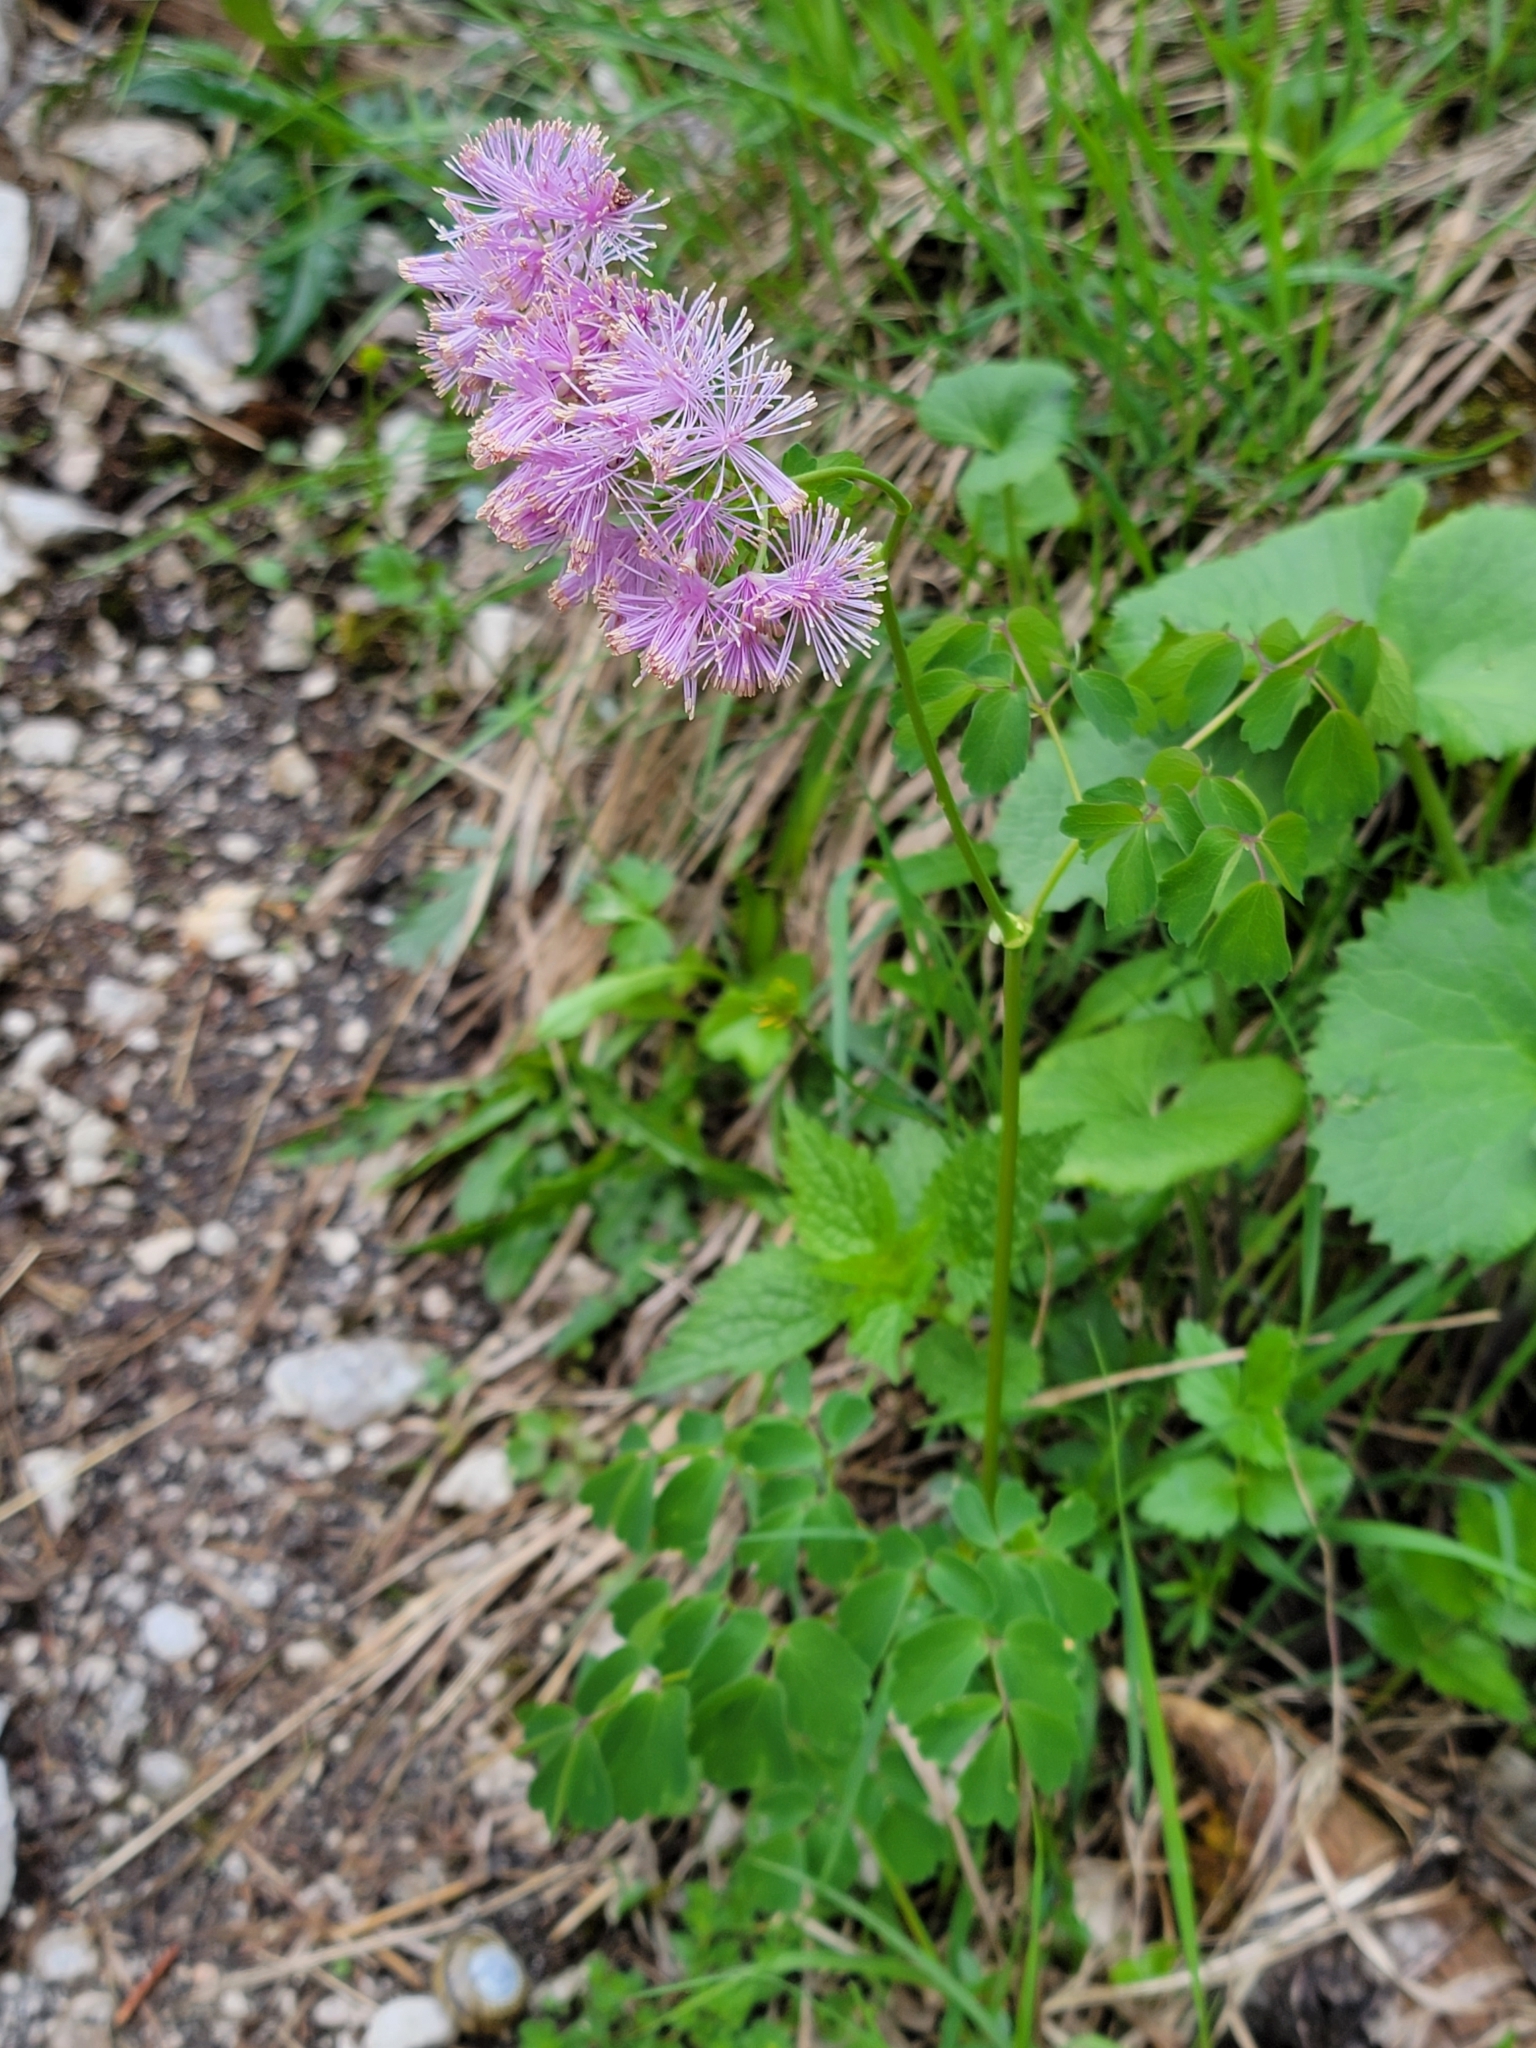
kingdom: Plantae
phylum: Tracheophyta
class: Magnoliopsida
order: Ranunculales
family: Ranunculaceae
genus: Thalictrum
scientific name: Thalictrum aquilegiifolium
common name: French meadow-rue
